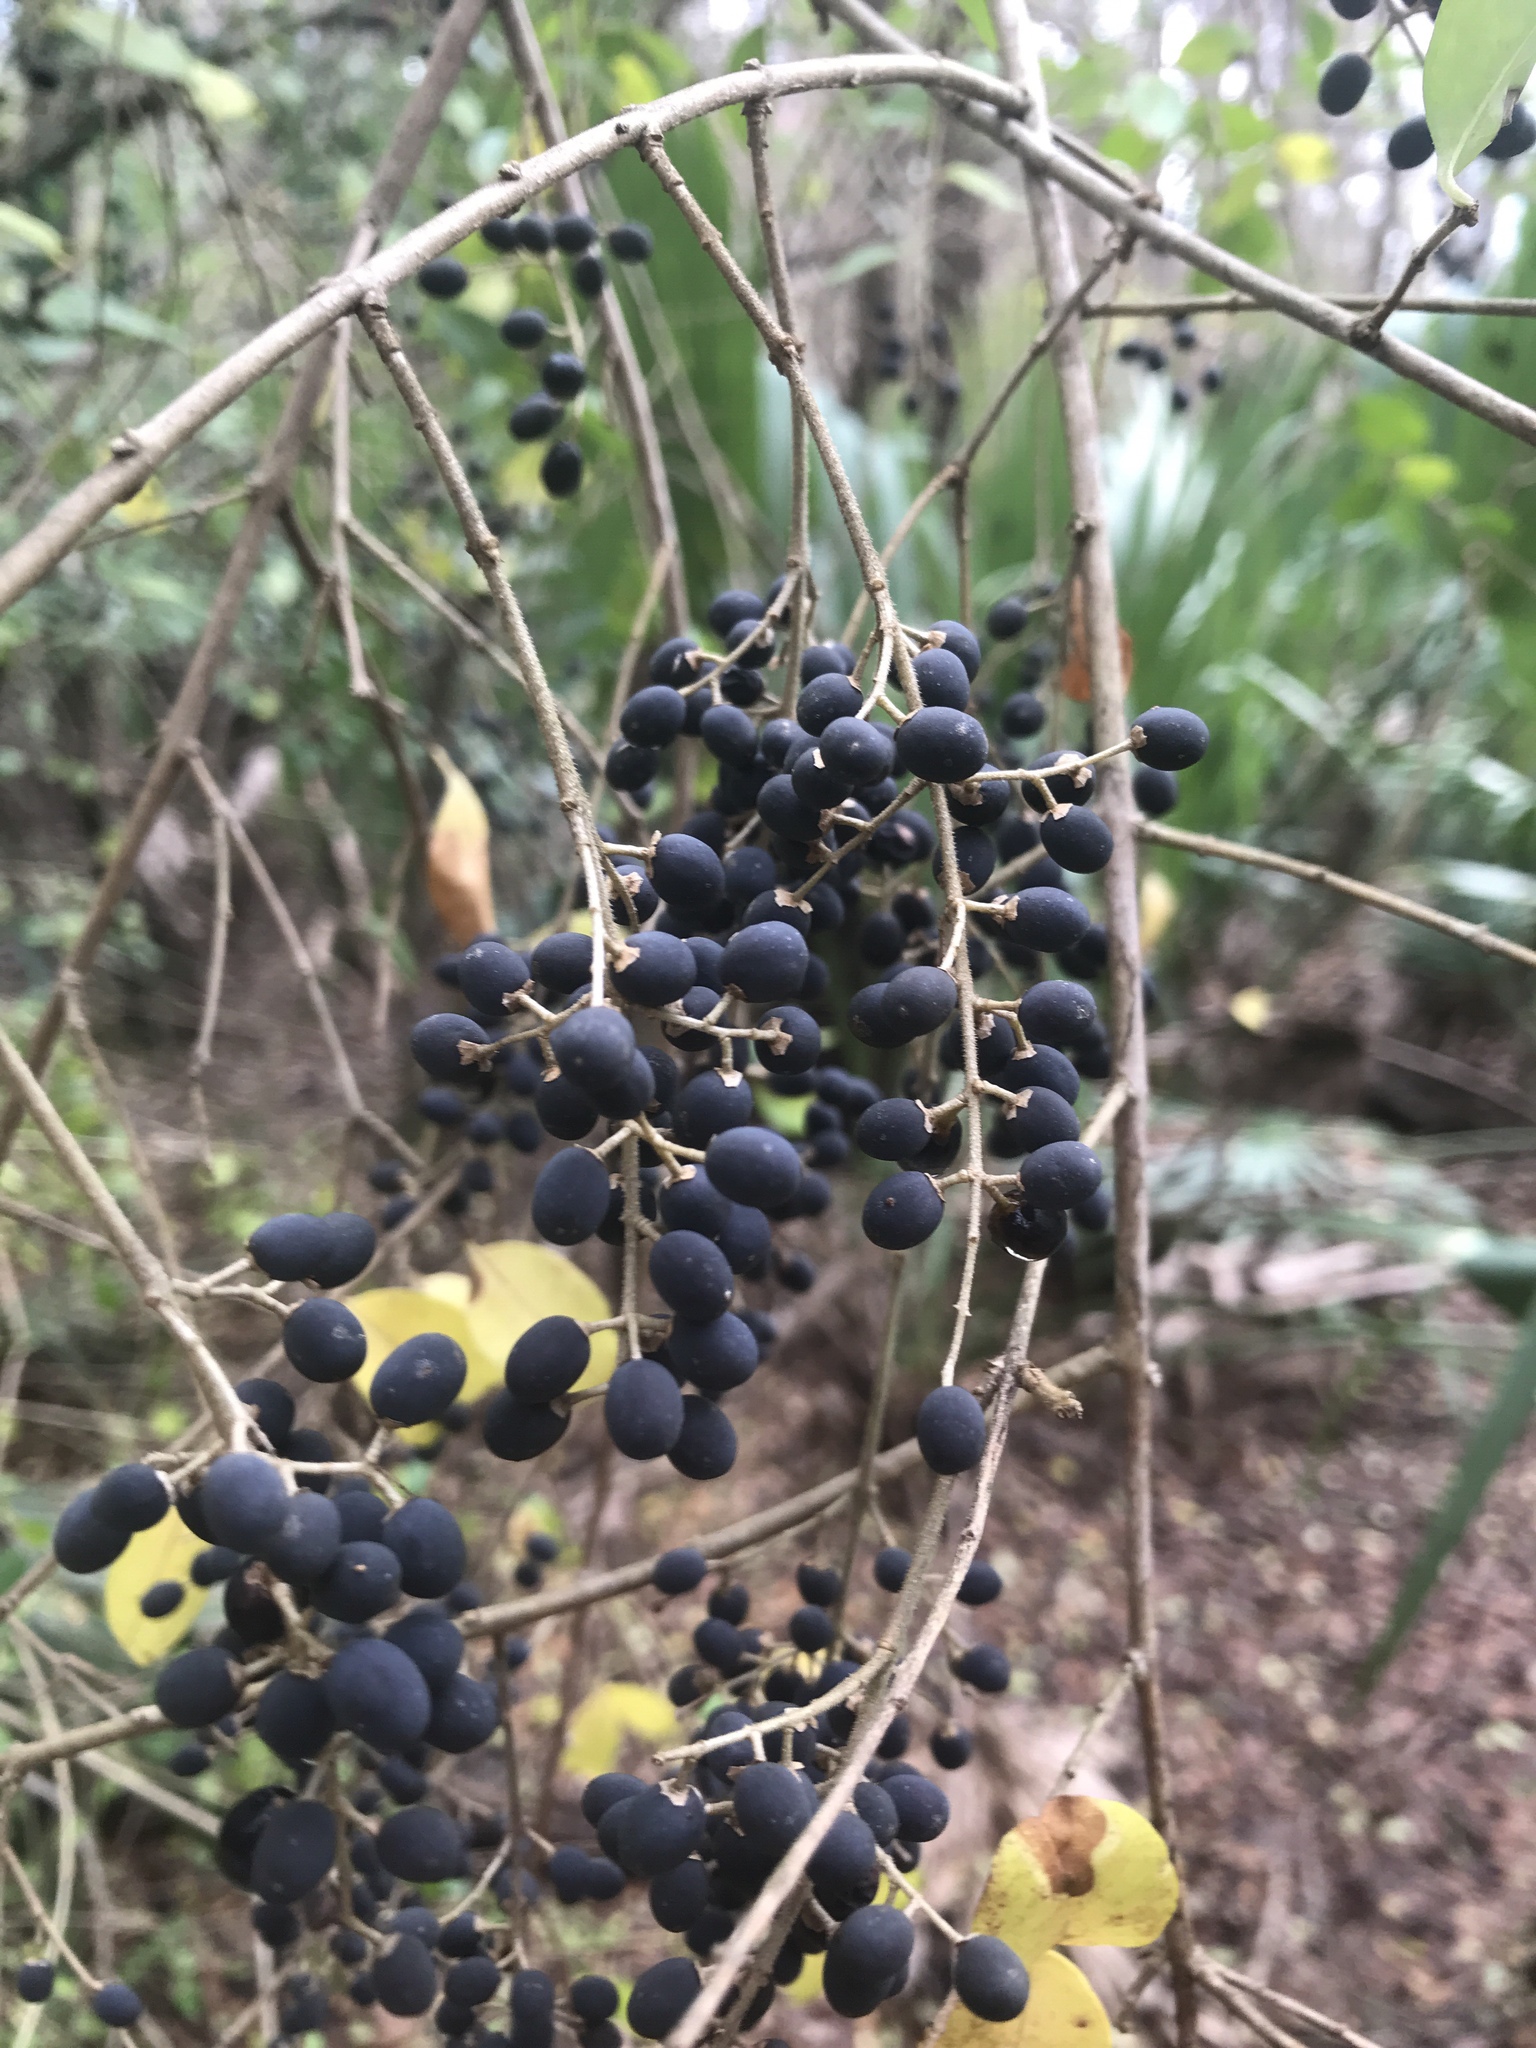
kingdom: Plantae
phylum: Tracheophyta
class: Magnoliopsida
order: Lamiales
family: Oleaceae
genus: Ligustrum
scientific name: Ligustrum sinense
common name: Chinese privet
